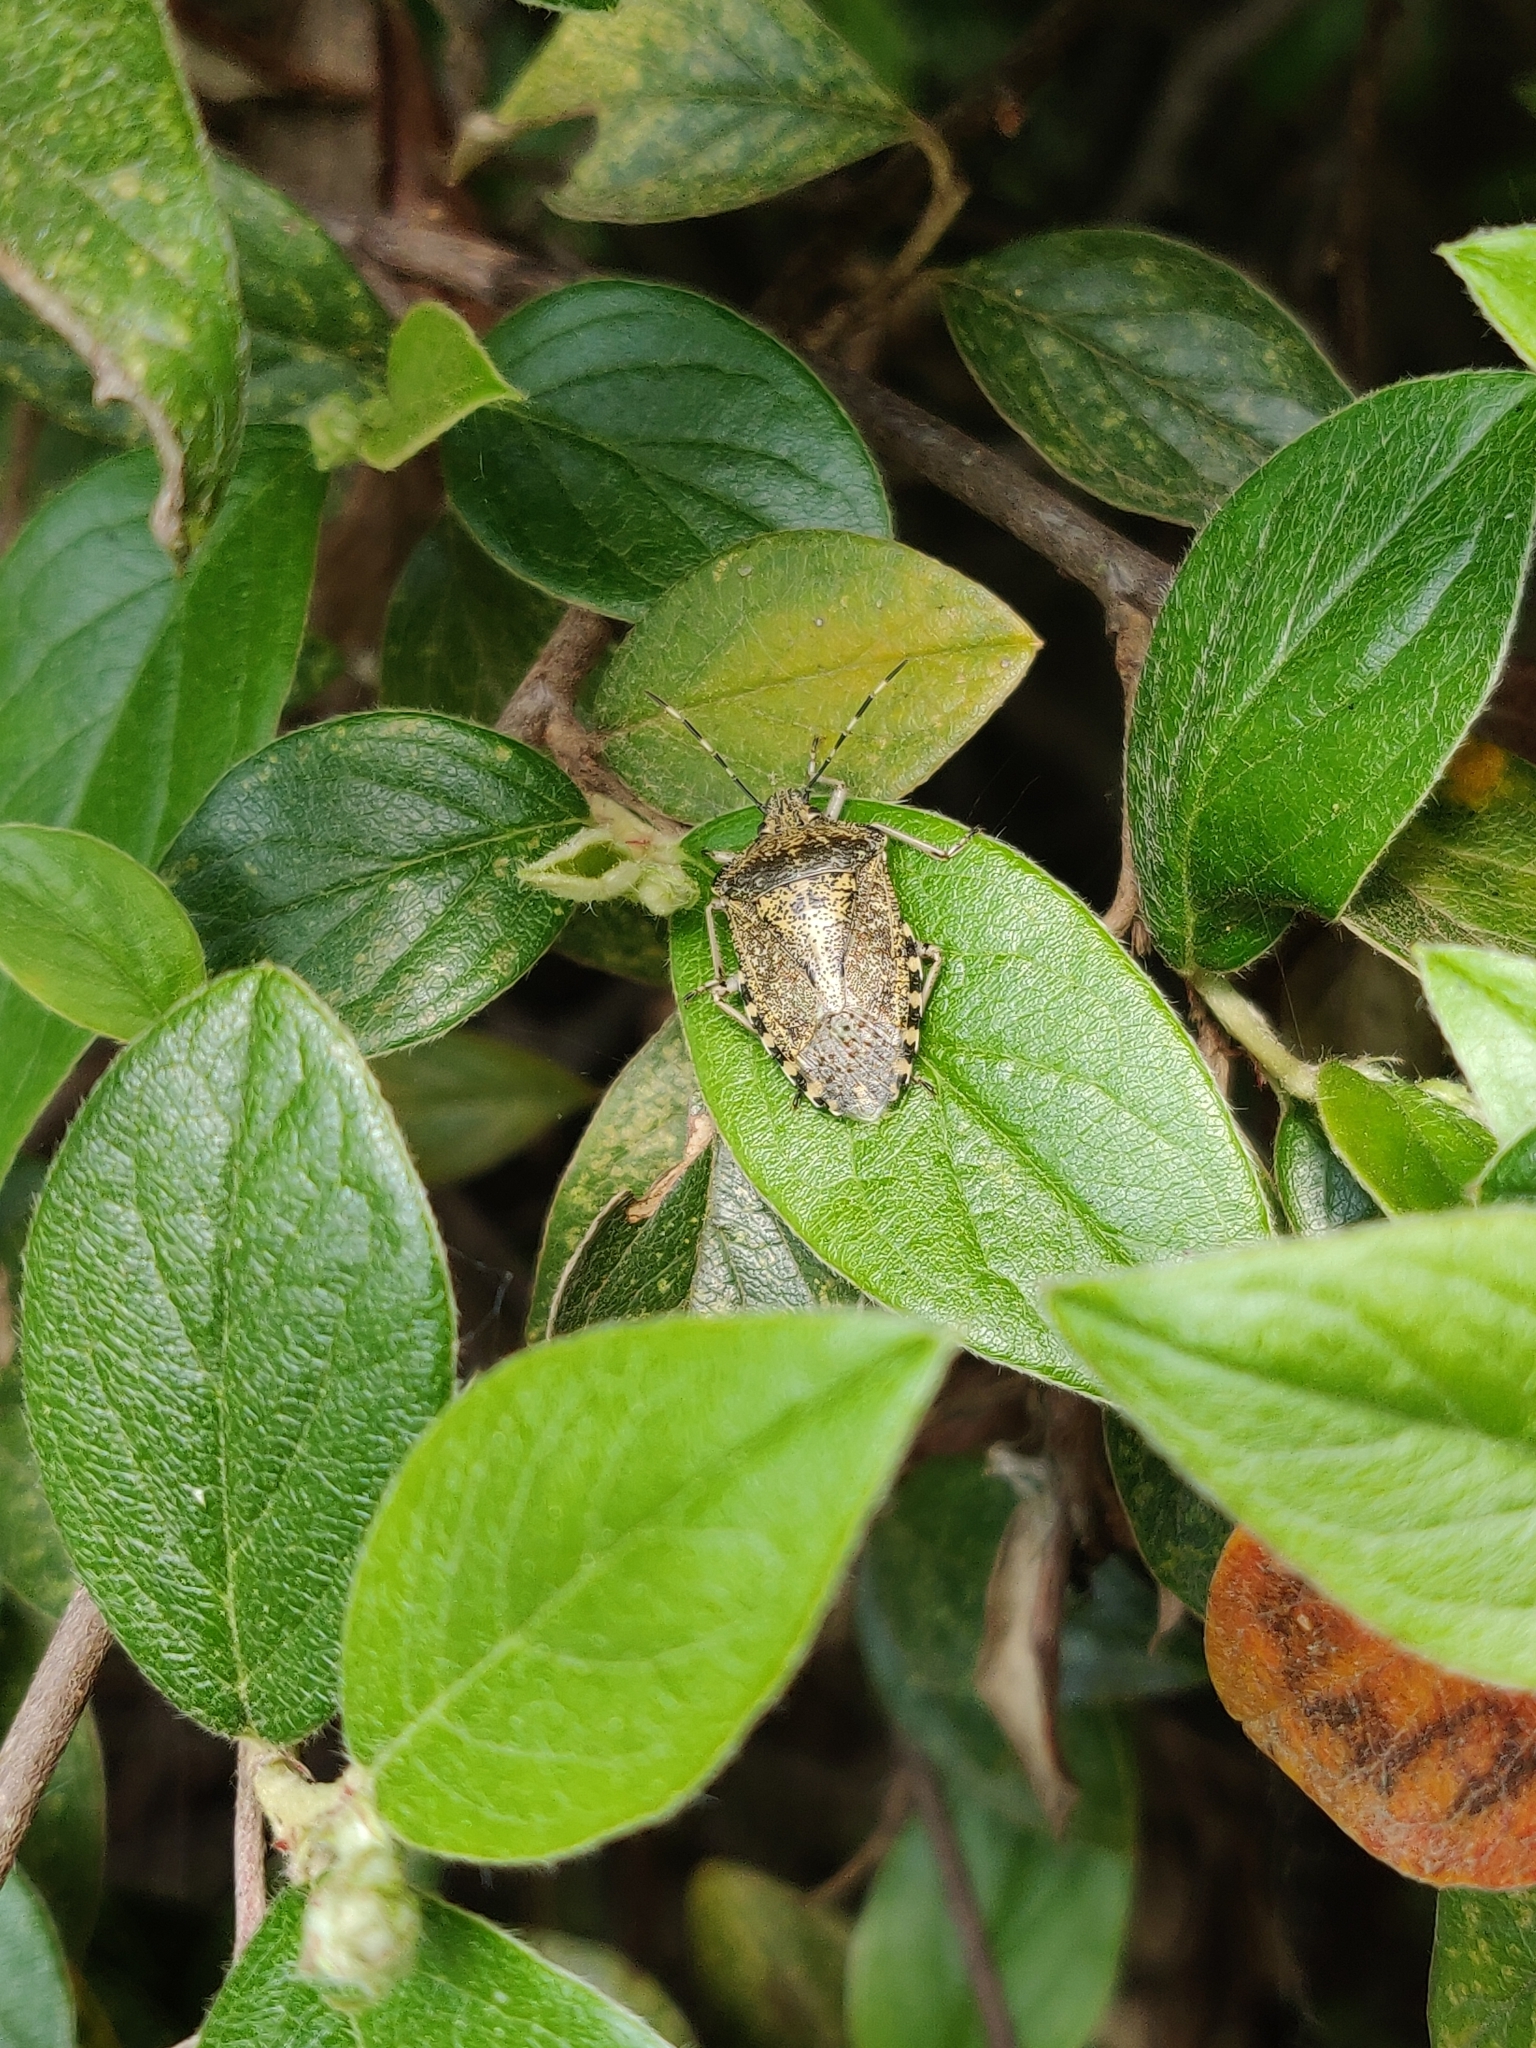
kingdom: Animalia
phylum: Arthropoda
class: Insecta
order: Hemiptera
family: Pentatomidae
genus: Rhaphigaster
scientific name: Rhaphigaster nebulosa
